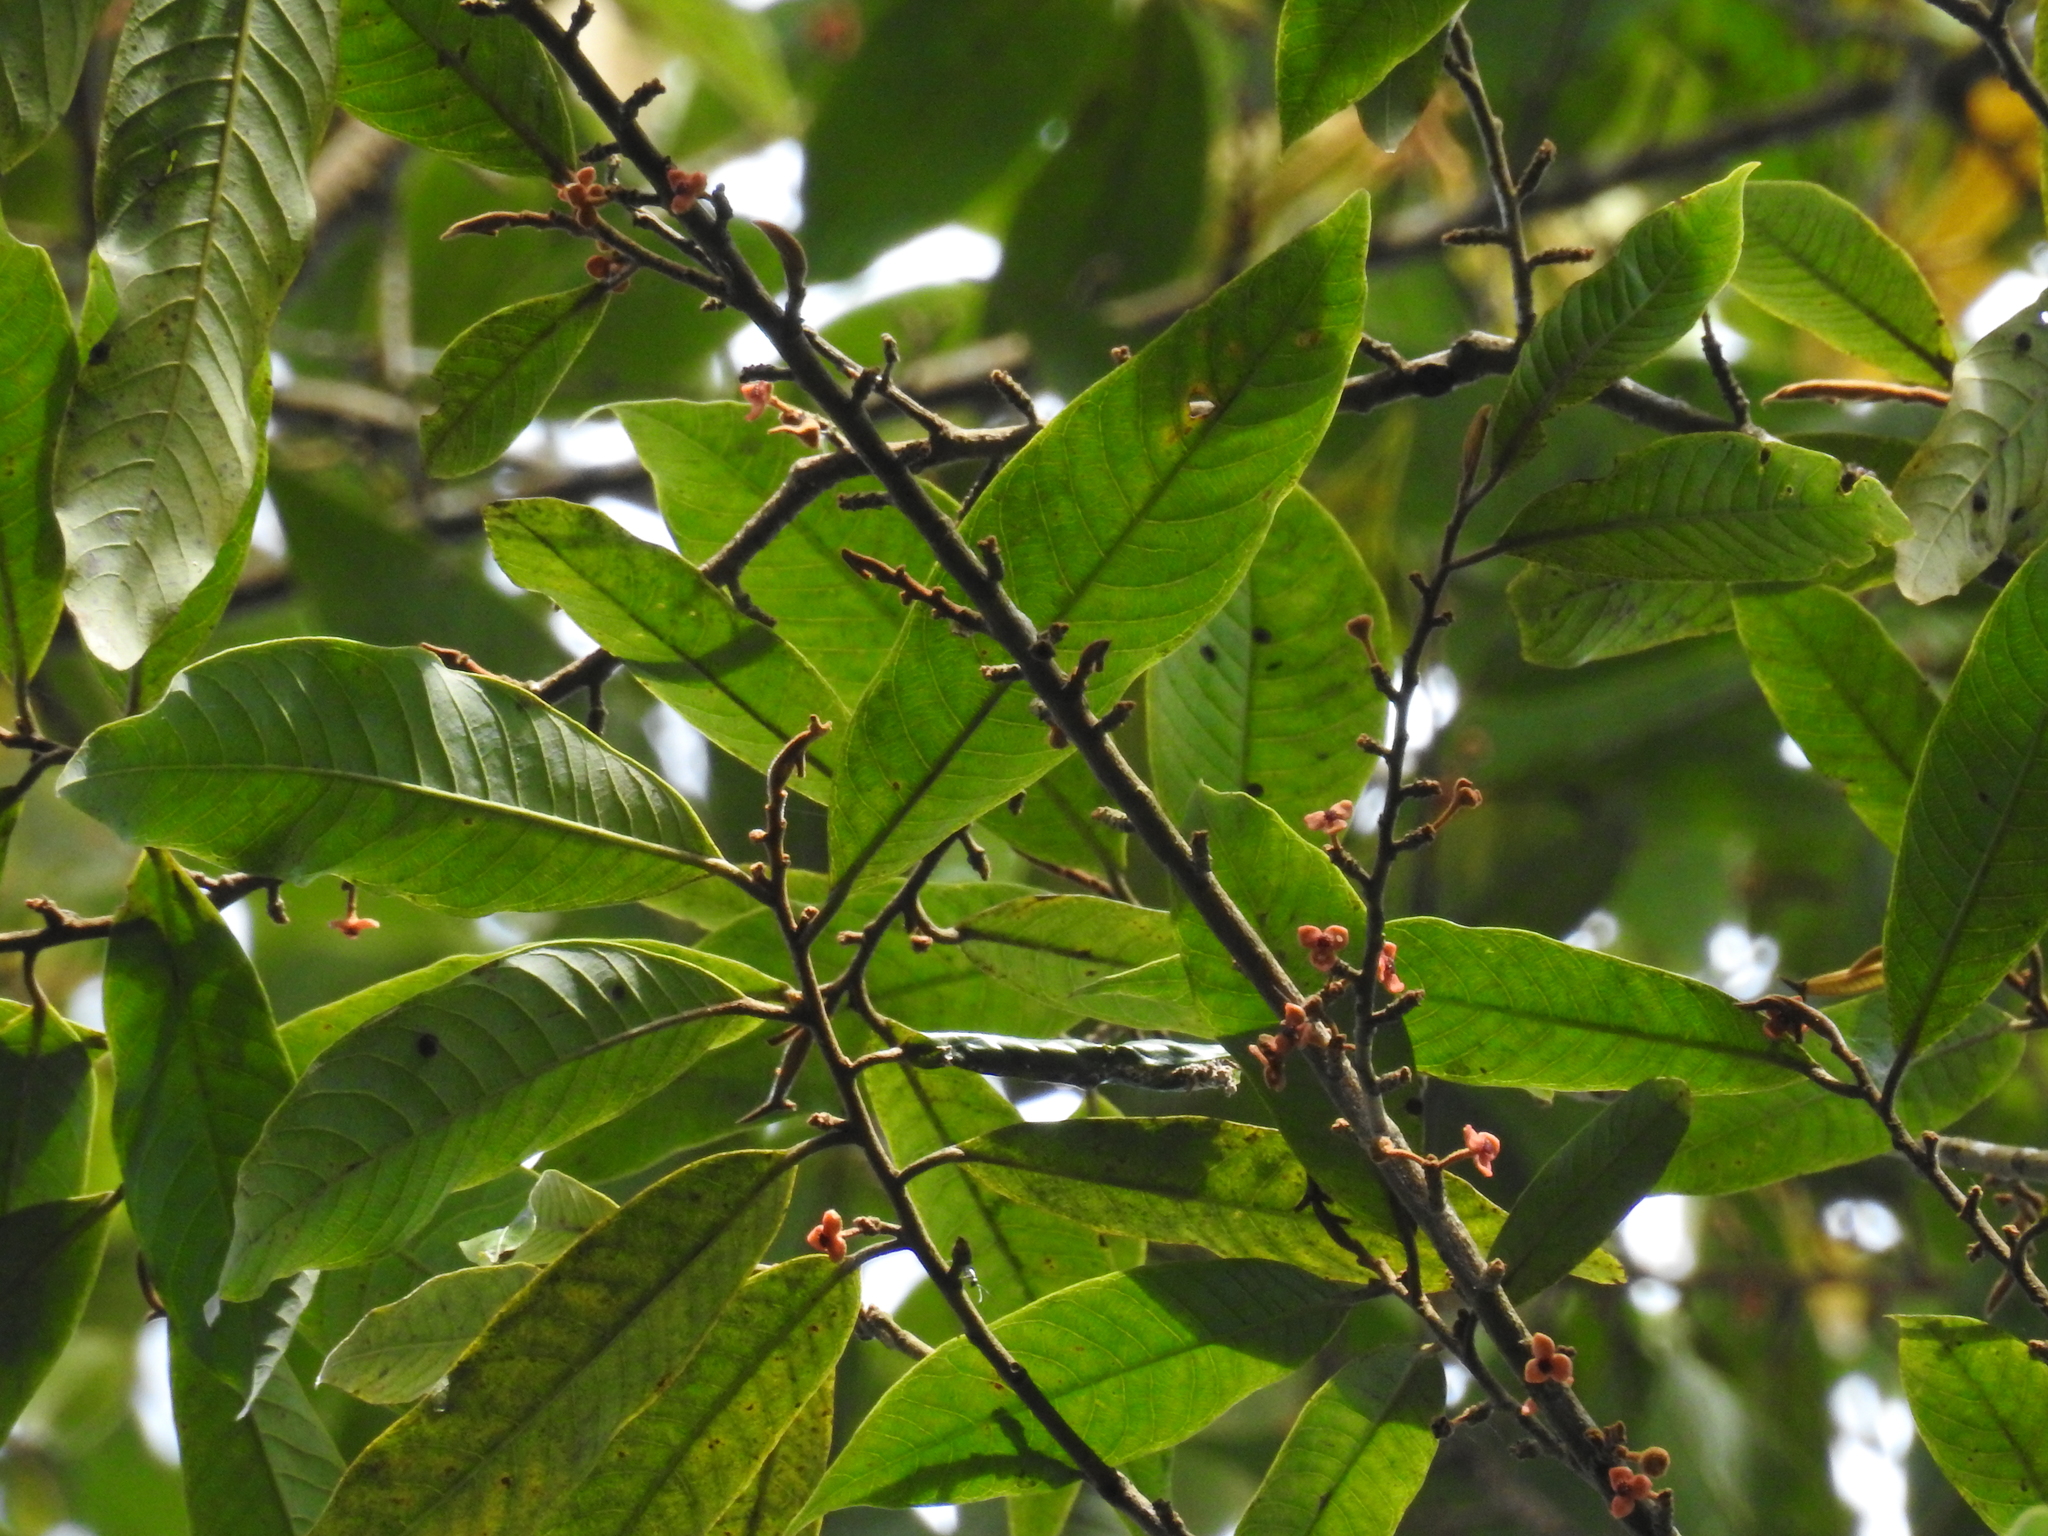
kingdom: Plantae
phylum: Tracheophyta
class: Magnoliopsida
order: Magnoliales
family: Myristicaceae
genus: Knema
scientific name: Knema attenuata
